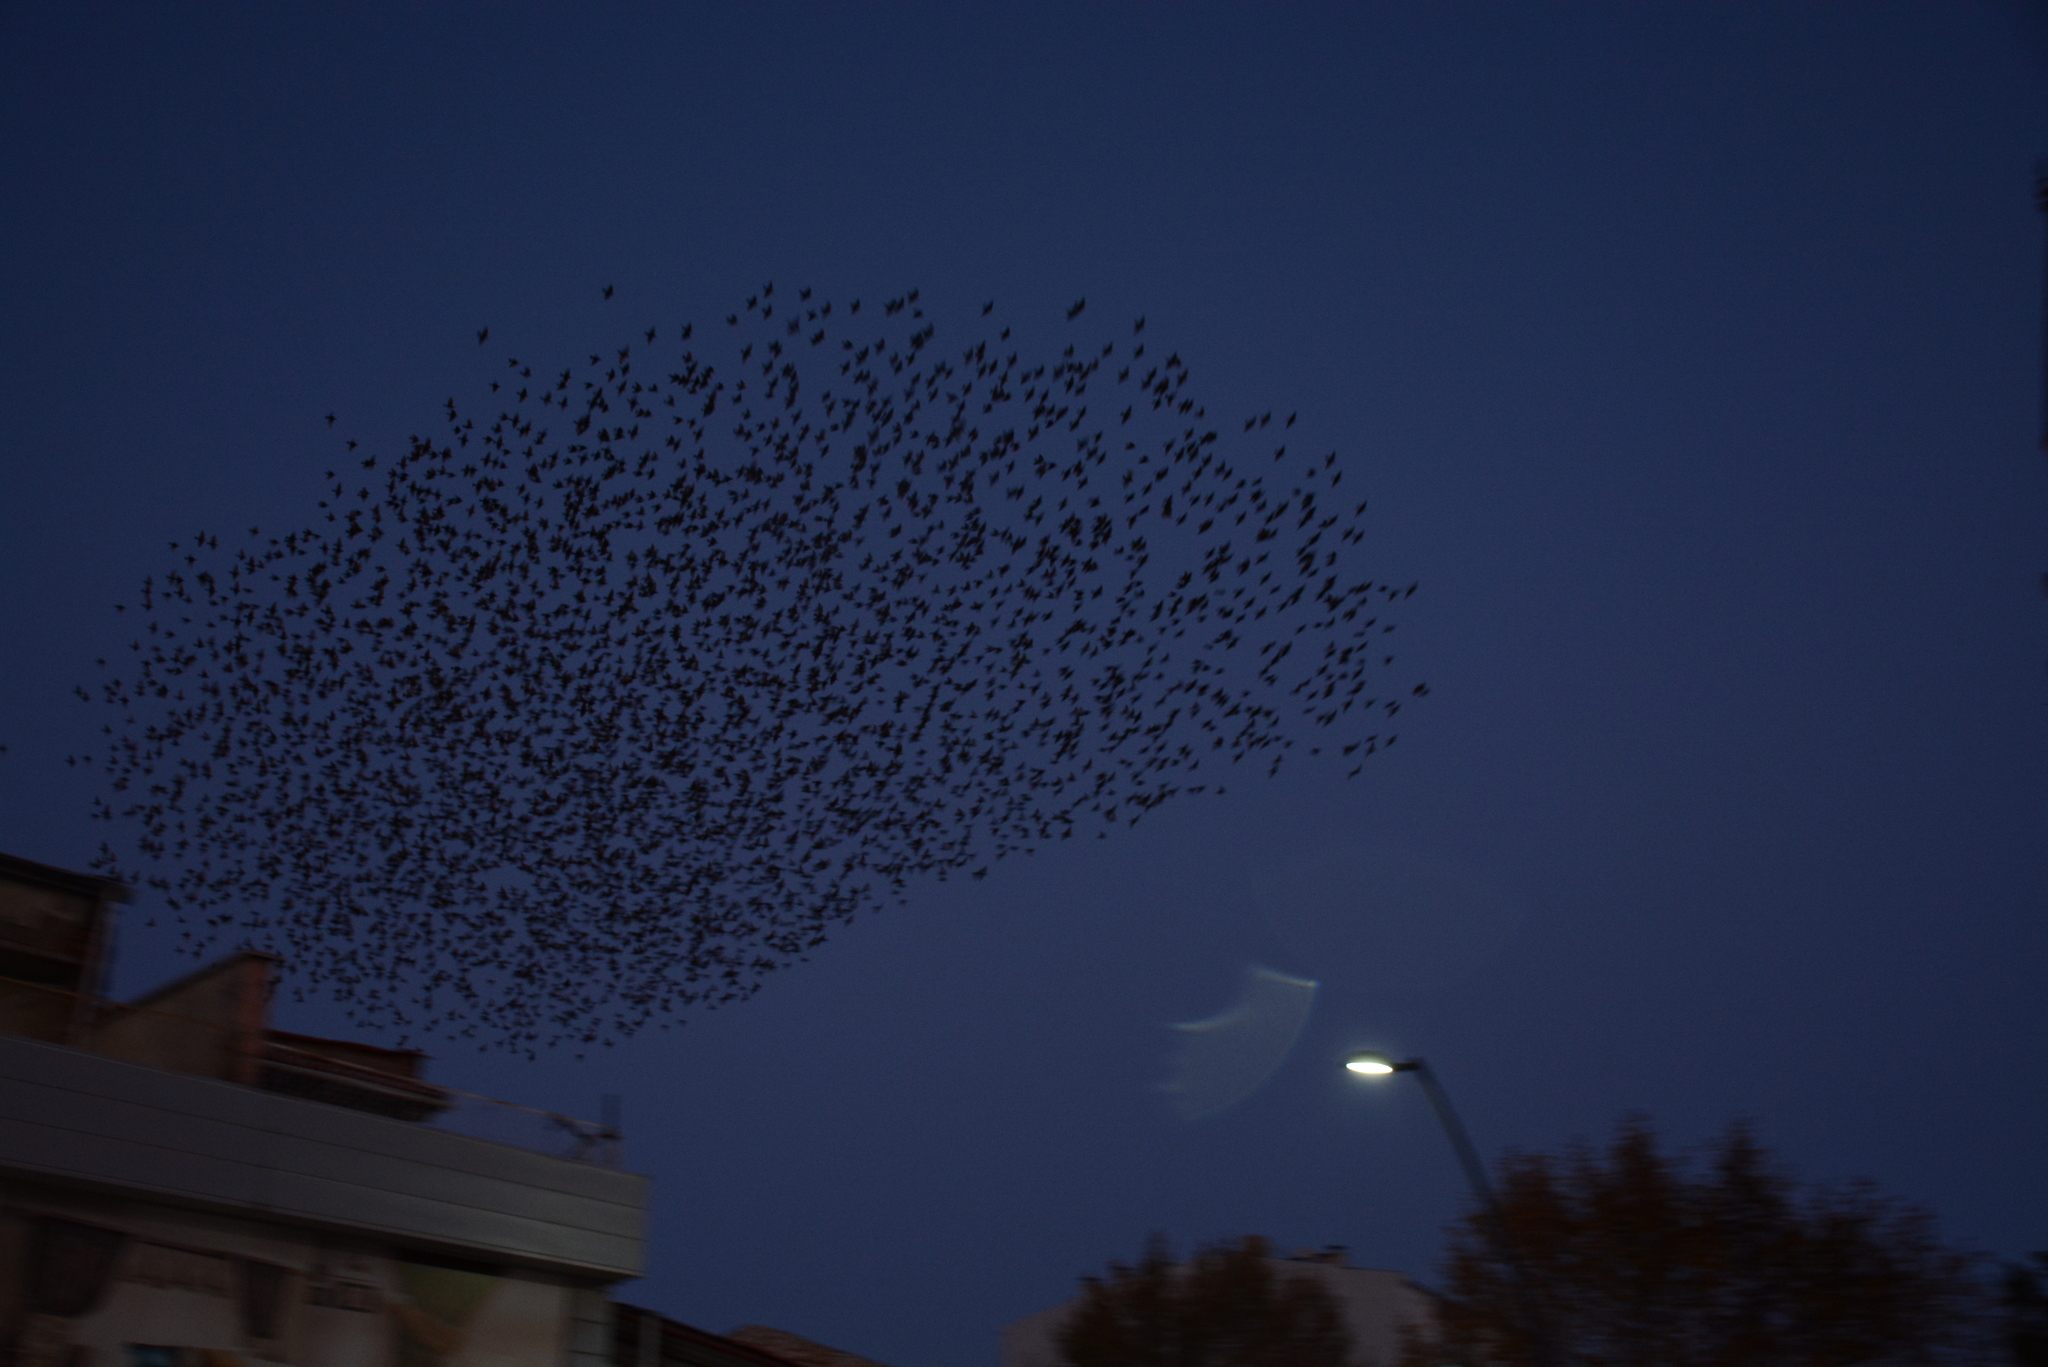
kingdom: Animalia
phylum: Chordata
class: Aves
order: Passeriformes
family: Sturnidae
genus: Sturnus
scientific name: Sturnus vulgaris
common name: Common starling
